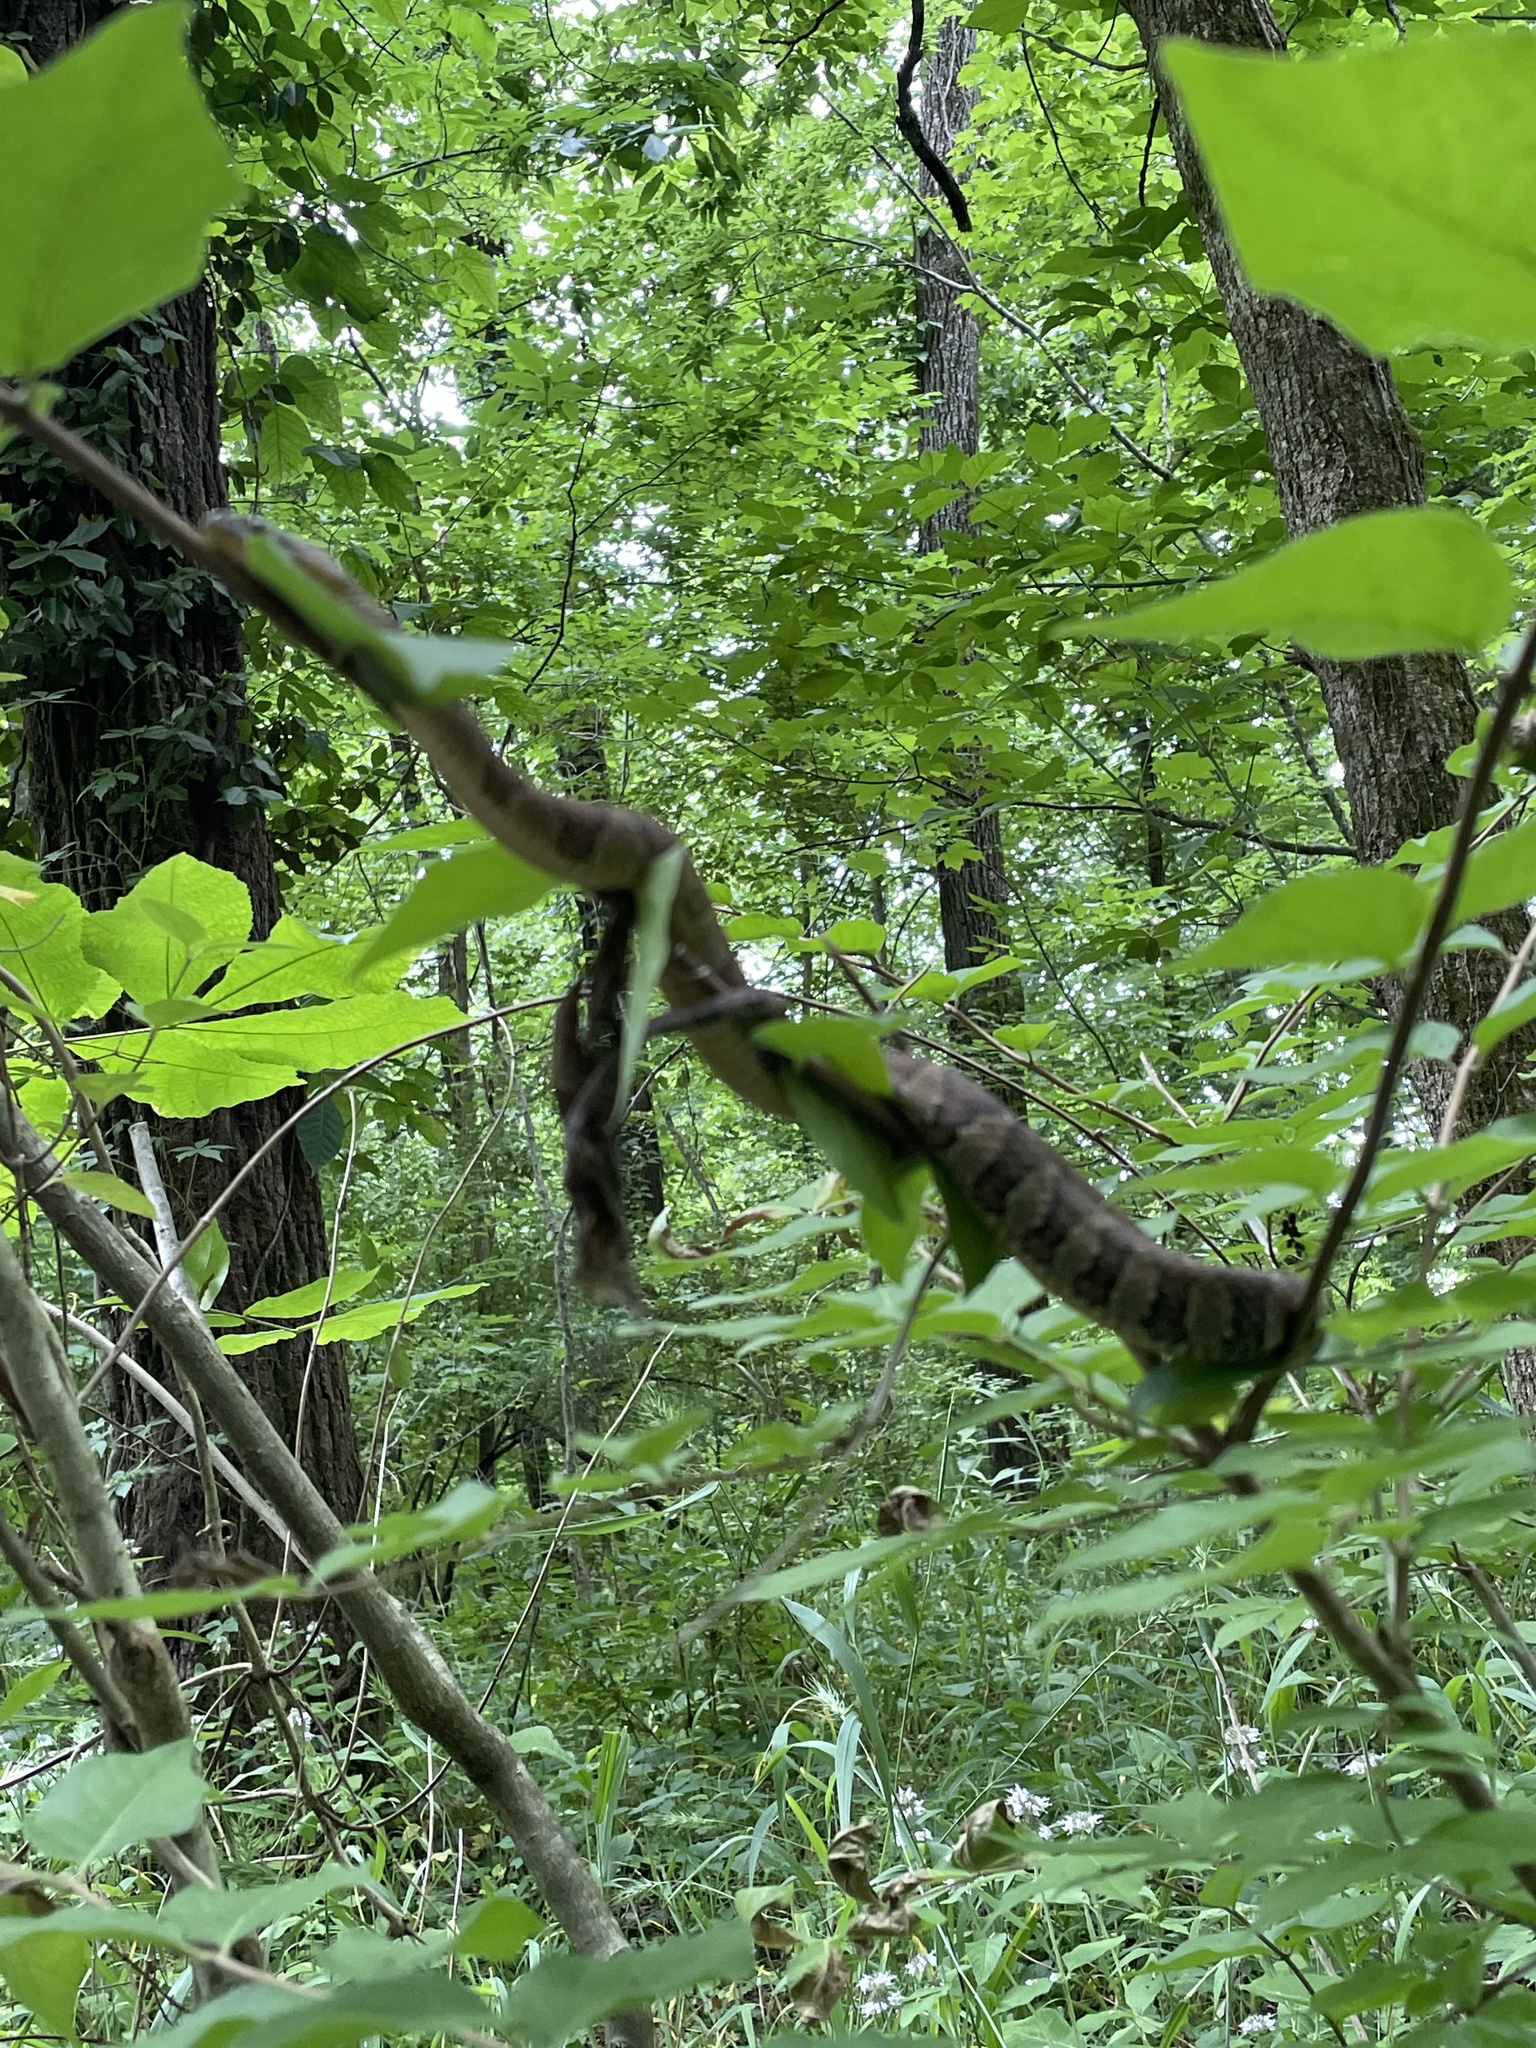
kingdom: Animalia
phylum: Chordata
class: Squamata
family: Colubridae
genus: Nerodia
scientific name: Nerodia sipedon
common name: Northern water snake
